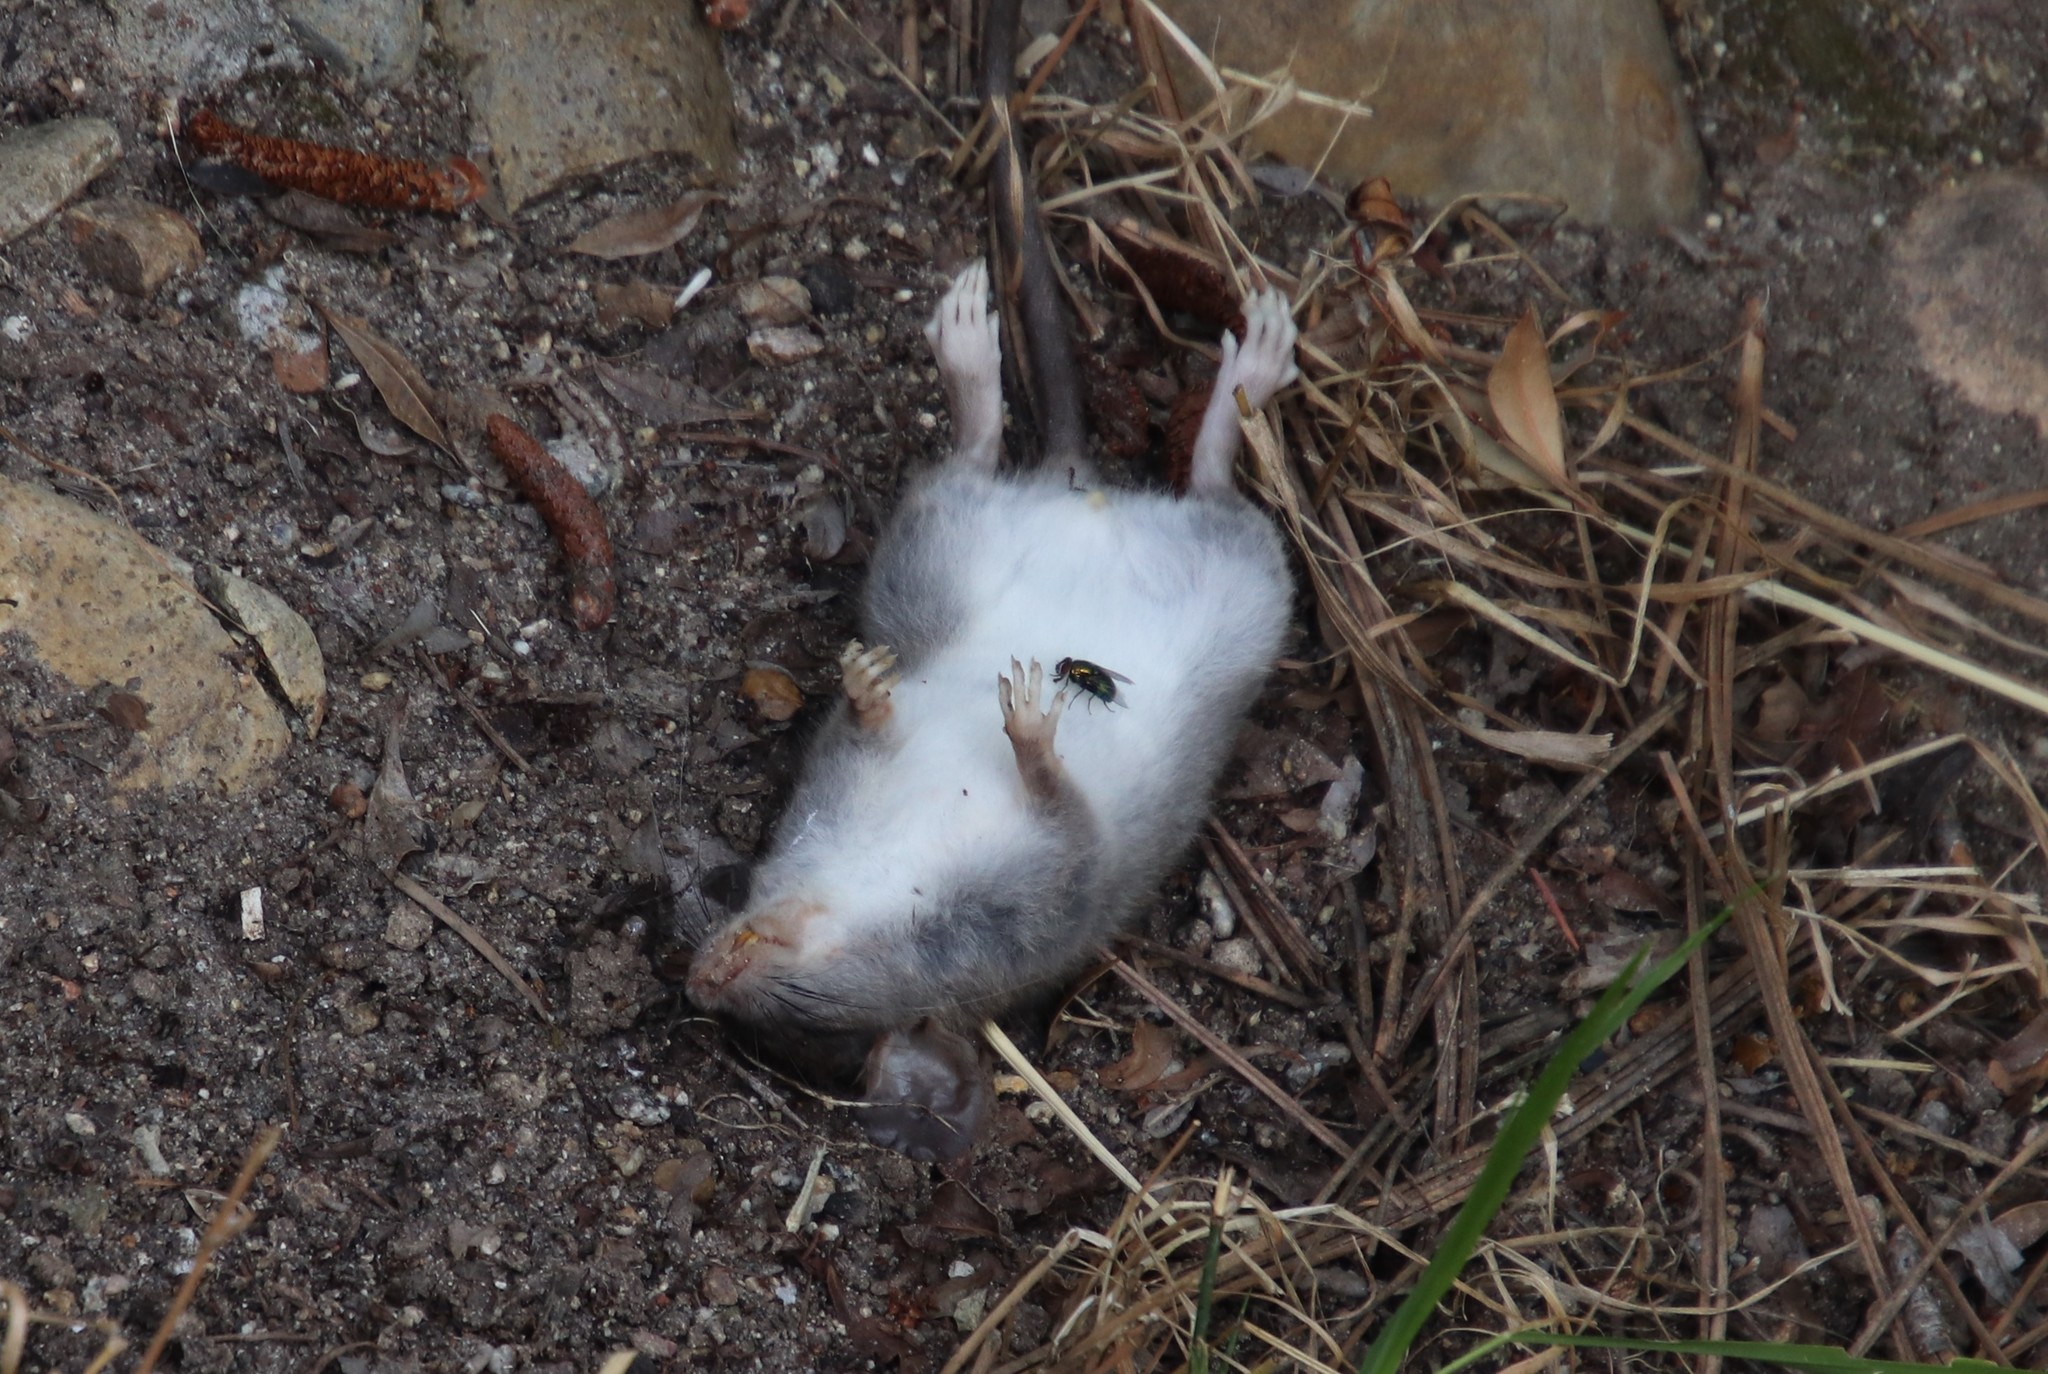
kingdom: Animalia
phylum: Chordata
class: Mammalia
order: Rodentia
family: Muridae
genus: Rattus
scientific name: Rattus rattus
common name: Black rat
